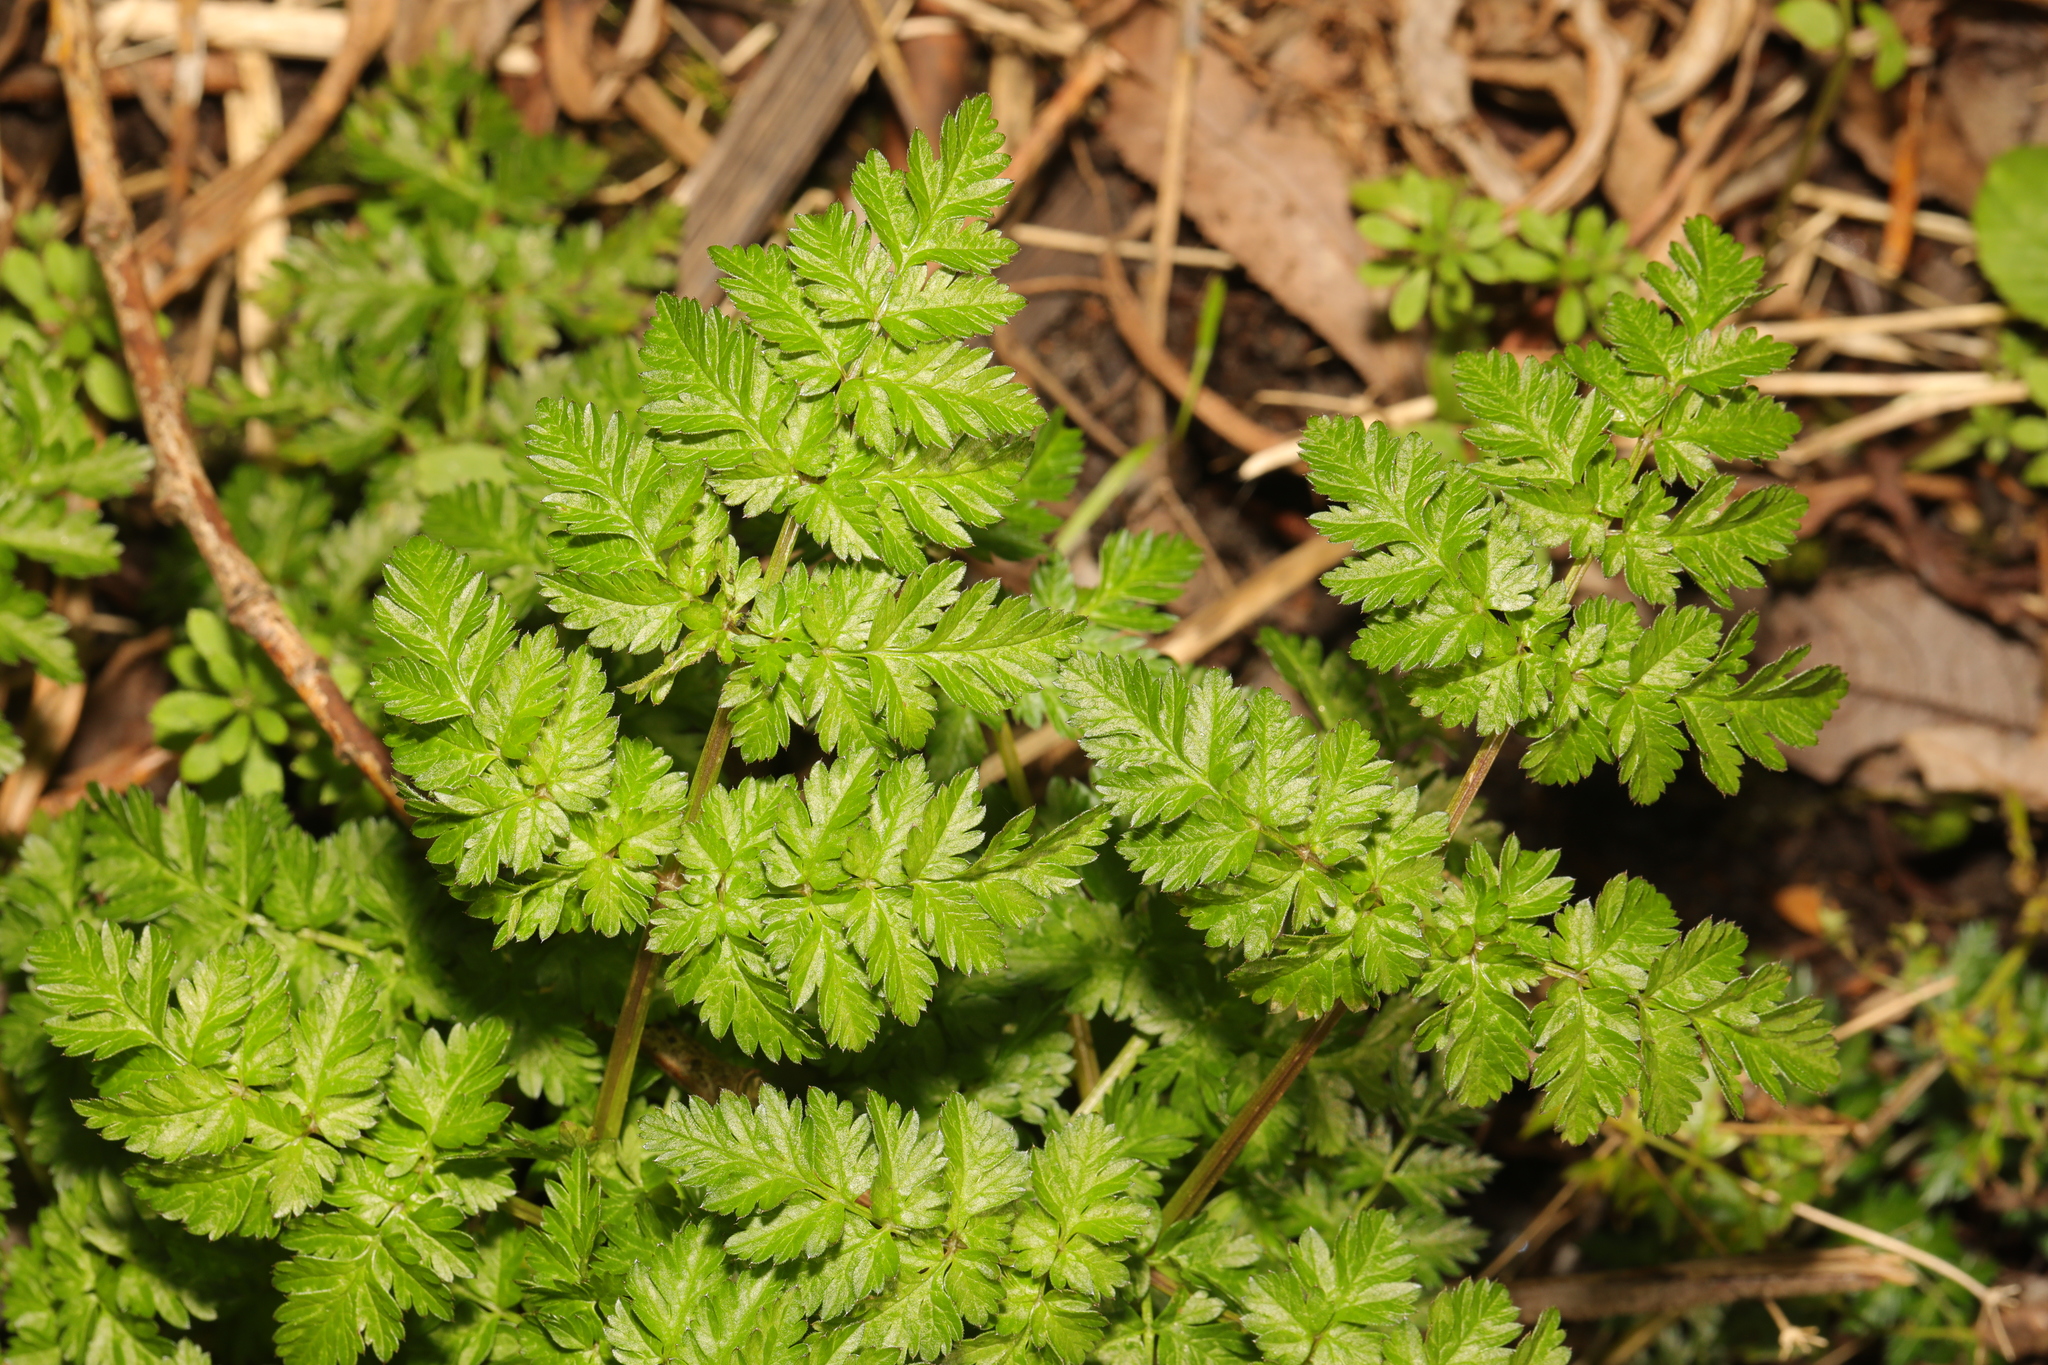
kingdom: Plantae
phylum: Tracheophyta
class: Magnoliopsida
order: Apiales
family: Apiaceae
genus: Anthriscus
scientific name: Anthriscus sylvestris
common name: Cow parsley
